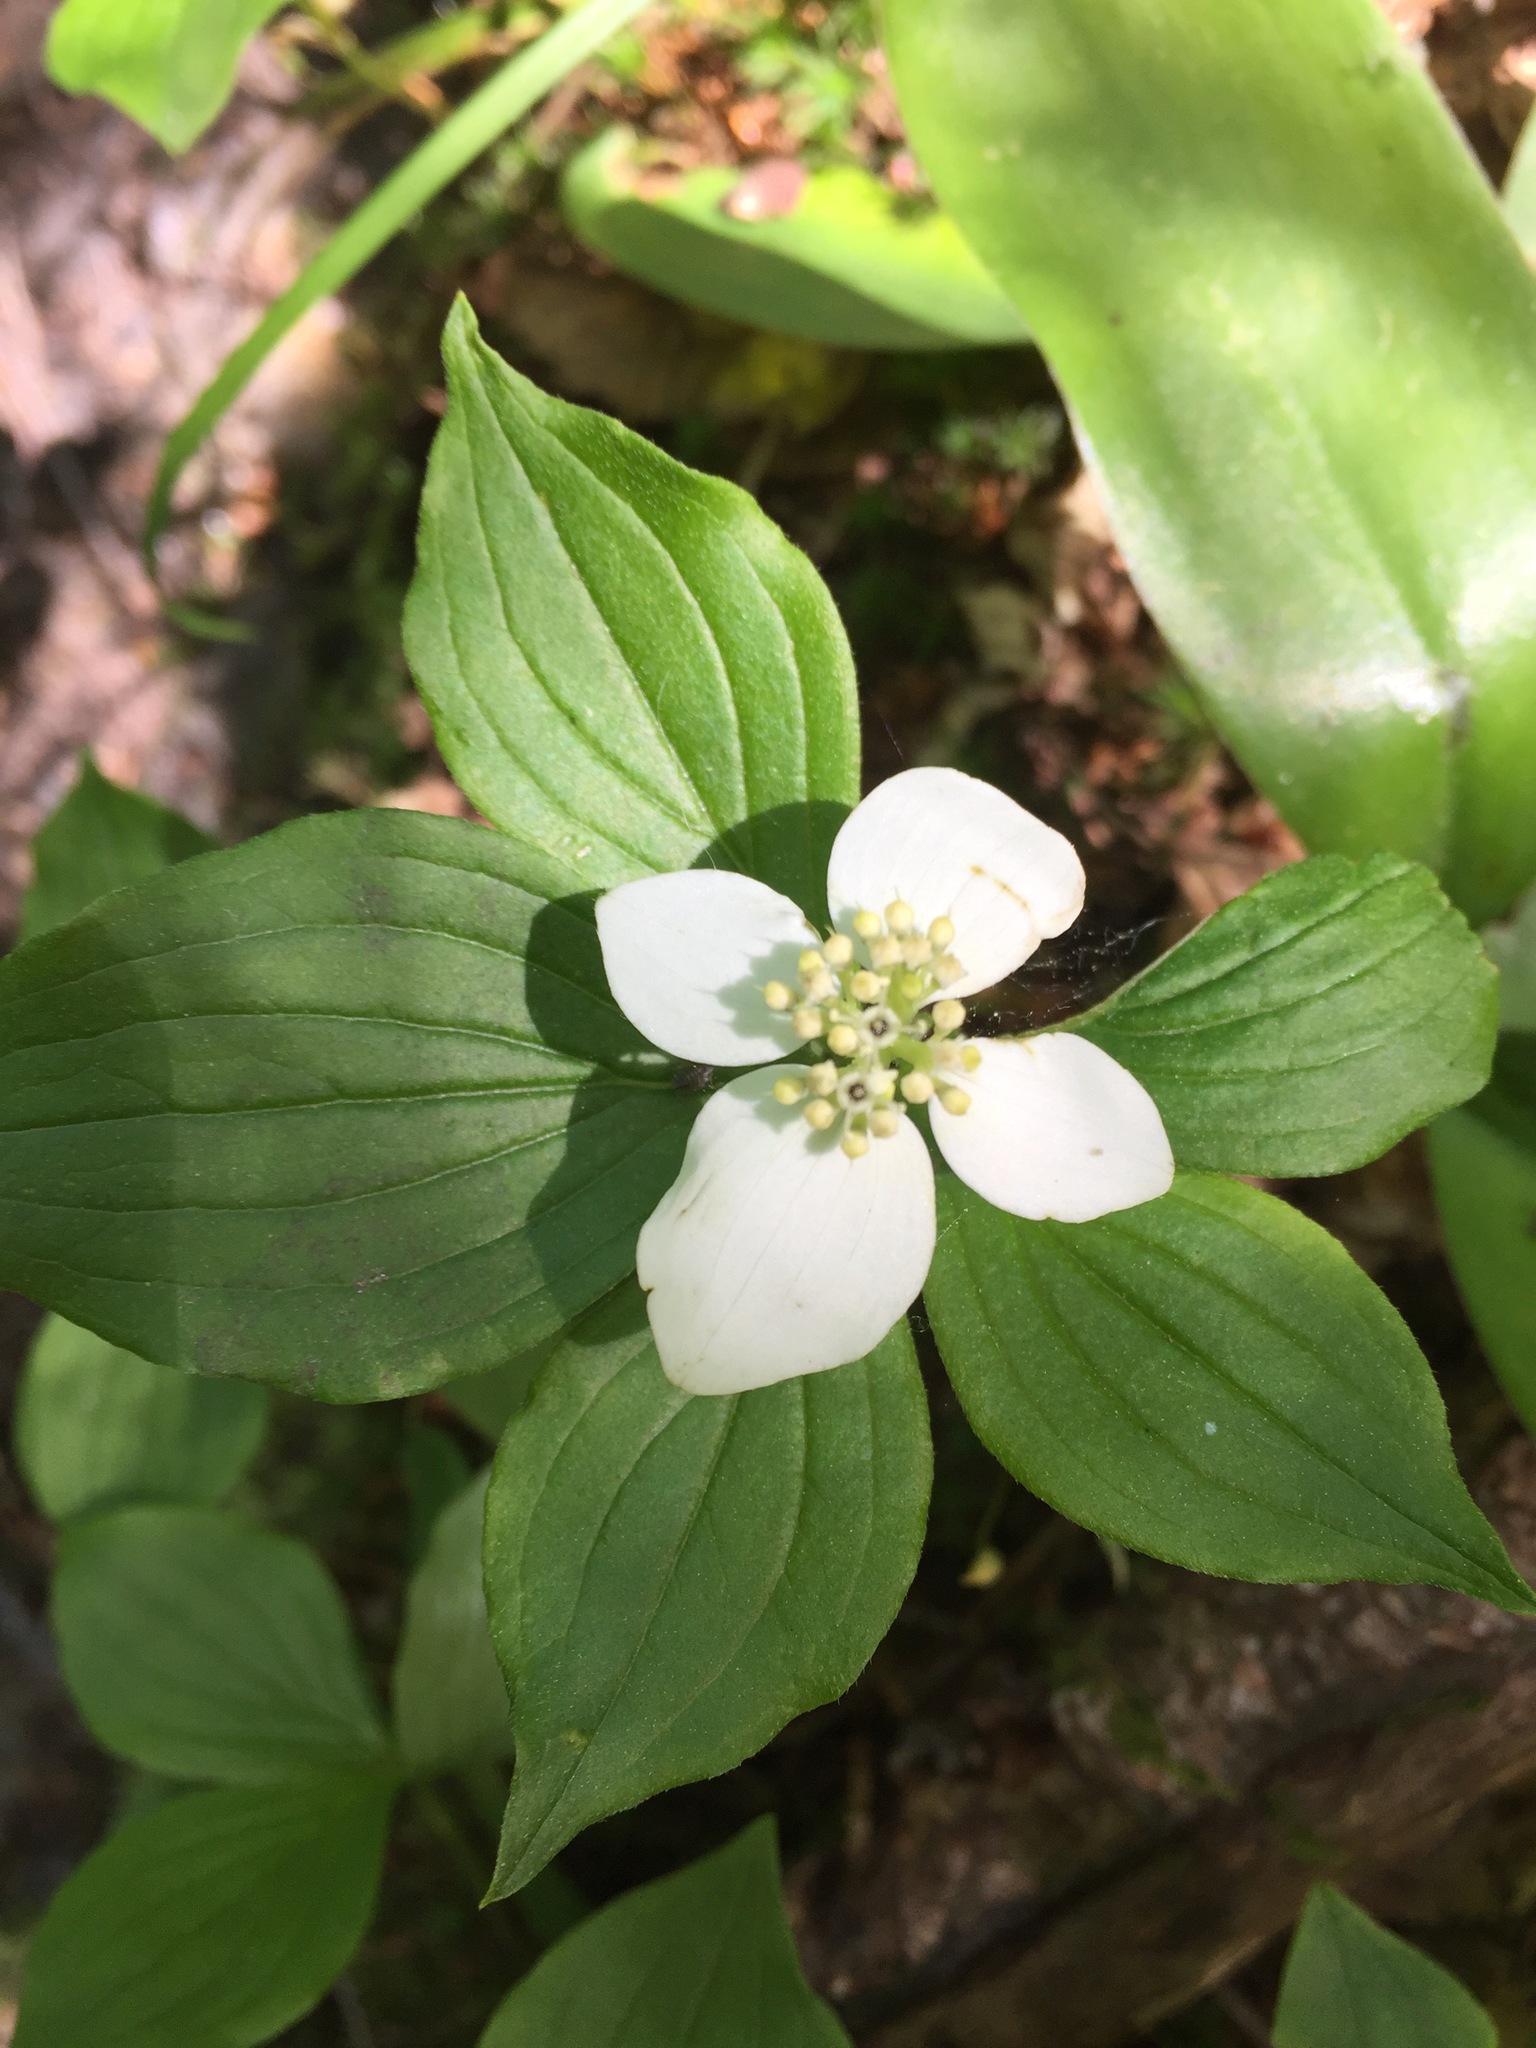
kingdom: Plantae
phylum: Tracheophyta
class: Magnoliopsida
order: Cornales
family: Cornaceae
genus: Cornus
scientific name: Cornus canadensis
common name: Creeping dogwood
